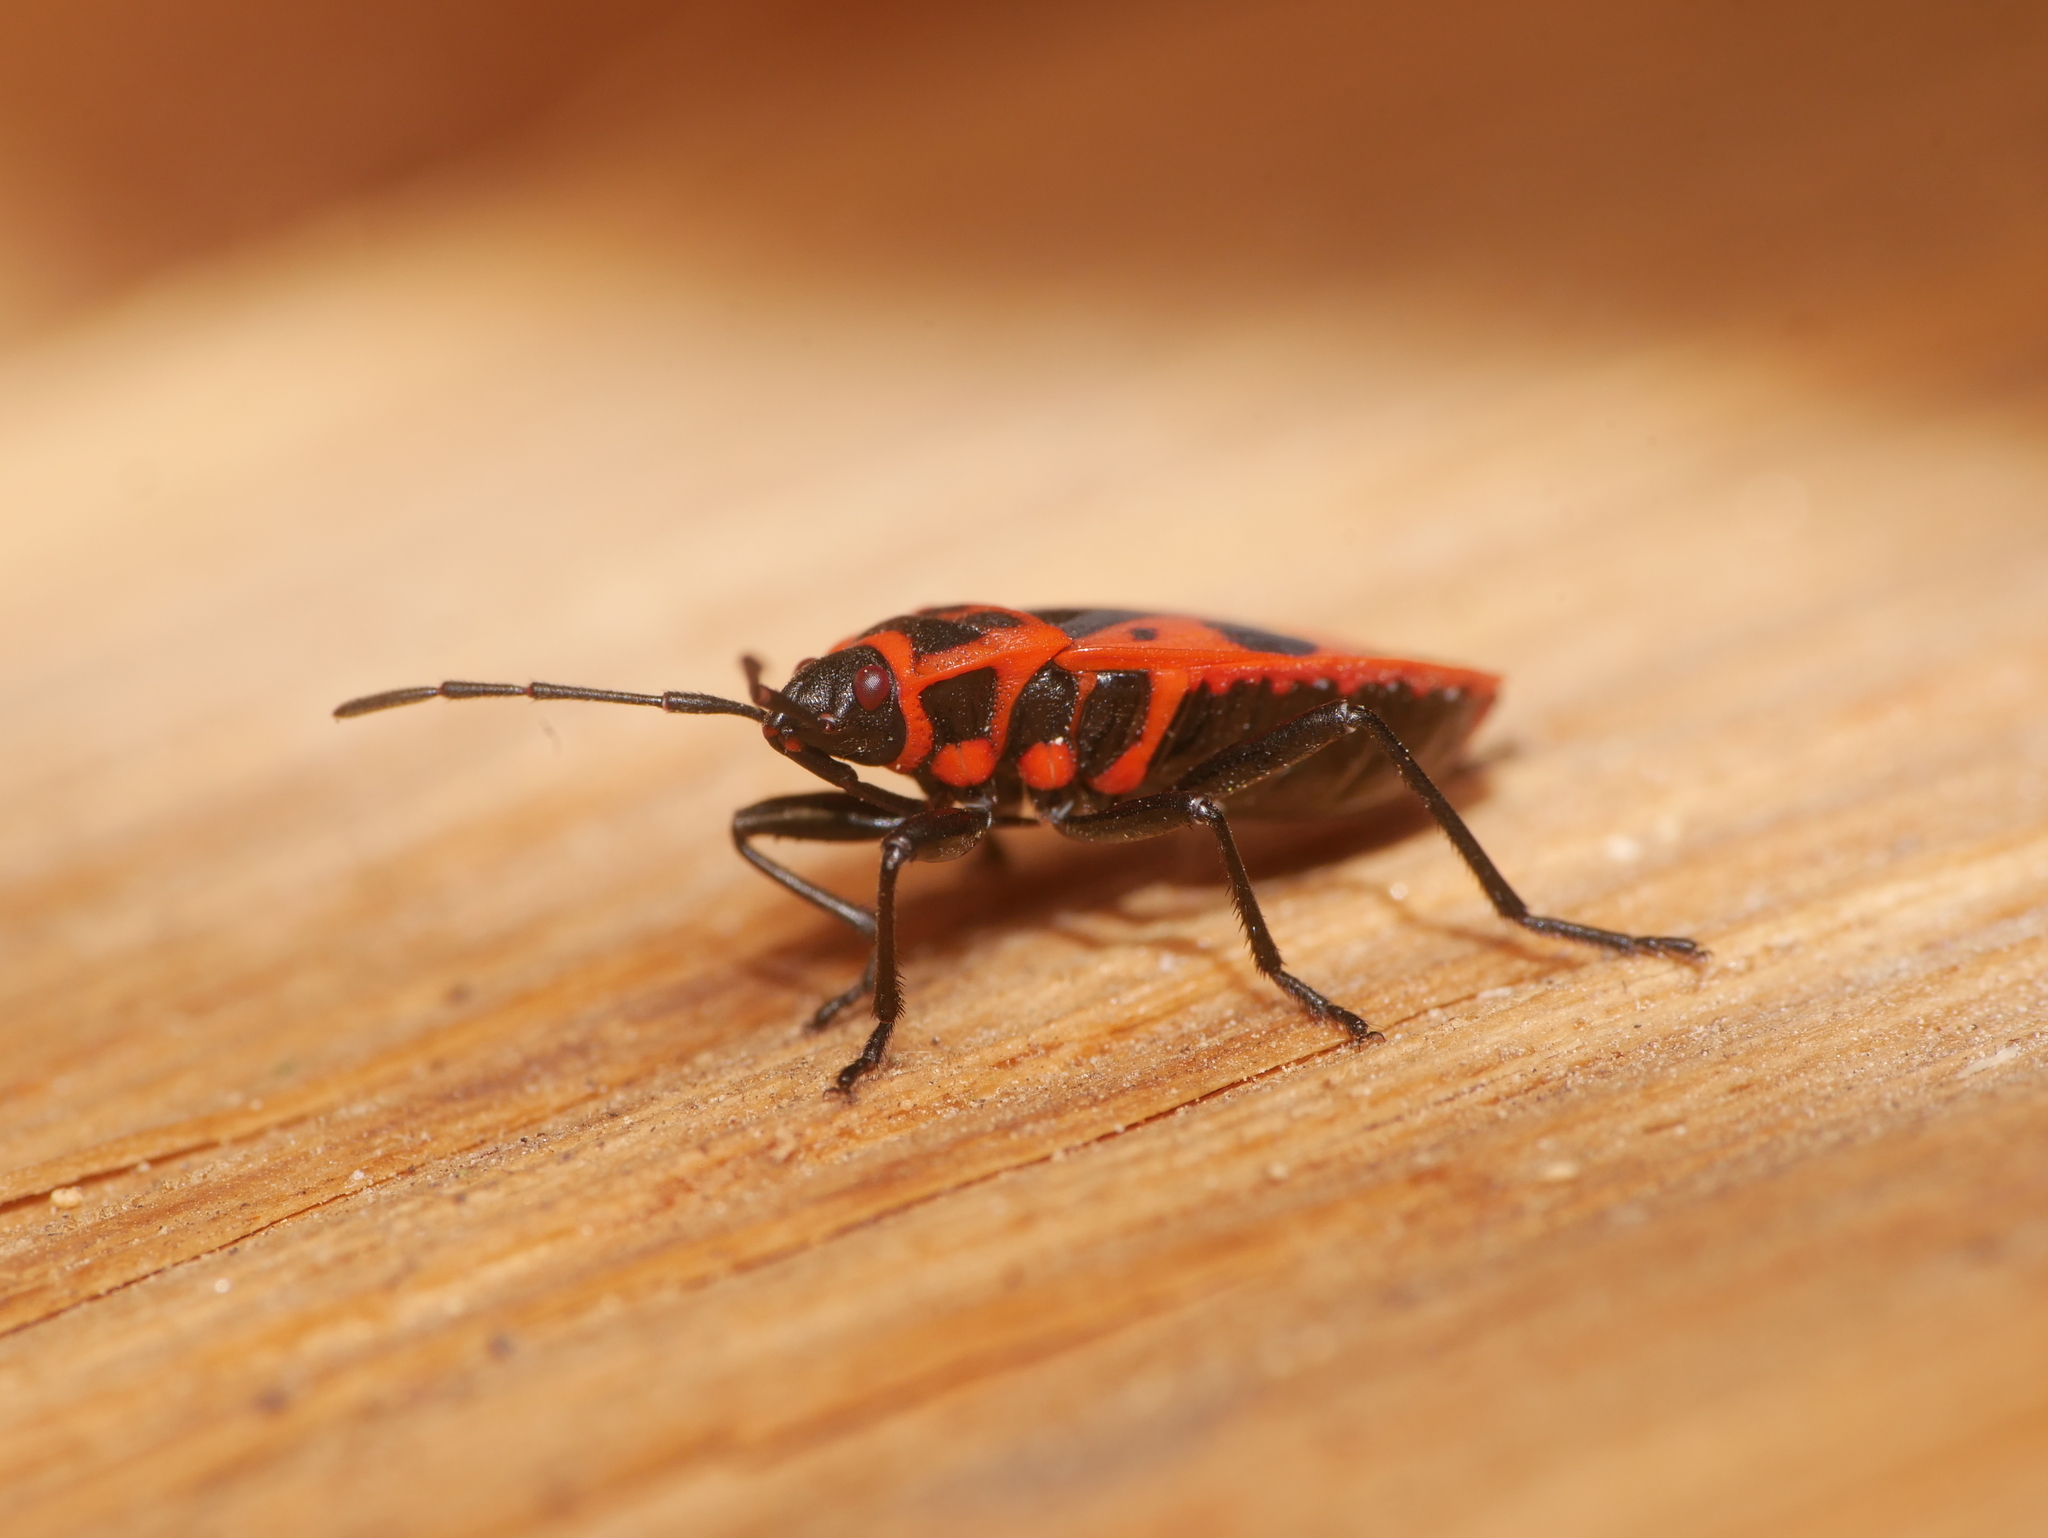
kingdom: Animalia
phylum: Arthropoda
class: Insecta
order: Hemiptera
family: Pyrrhocoridae
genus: Pyrrhocoris
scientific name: Pyrrhocoris apterus
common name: Firebug
